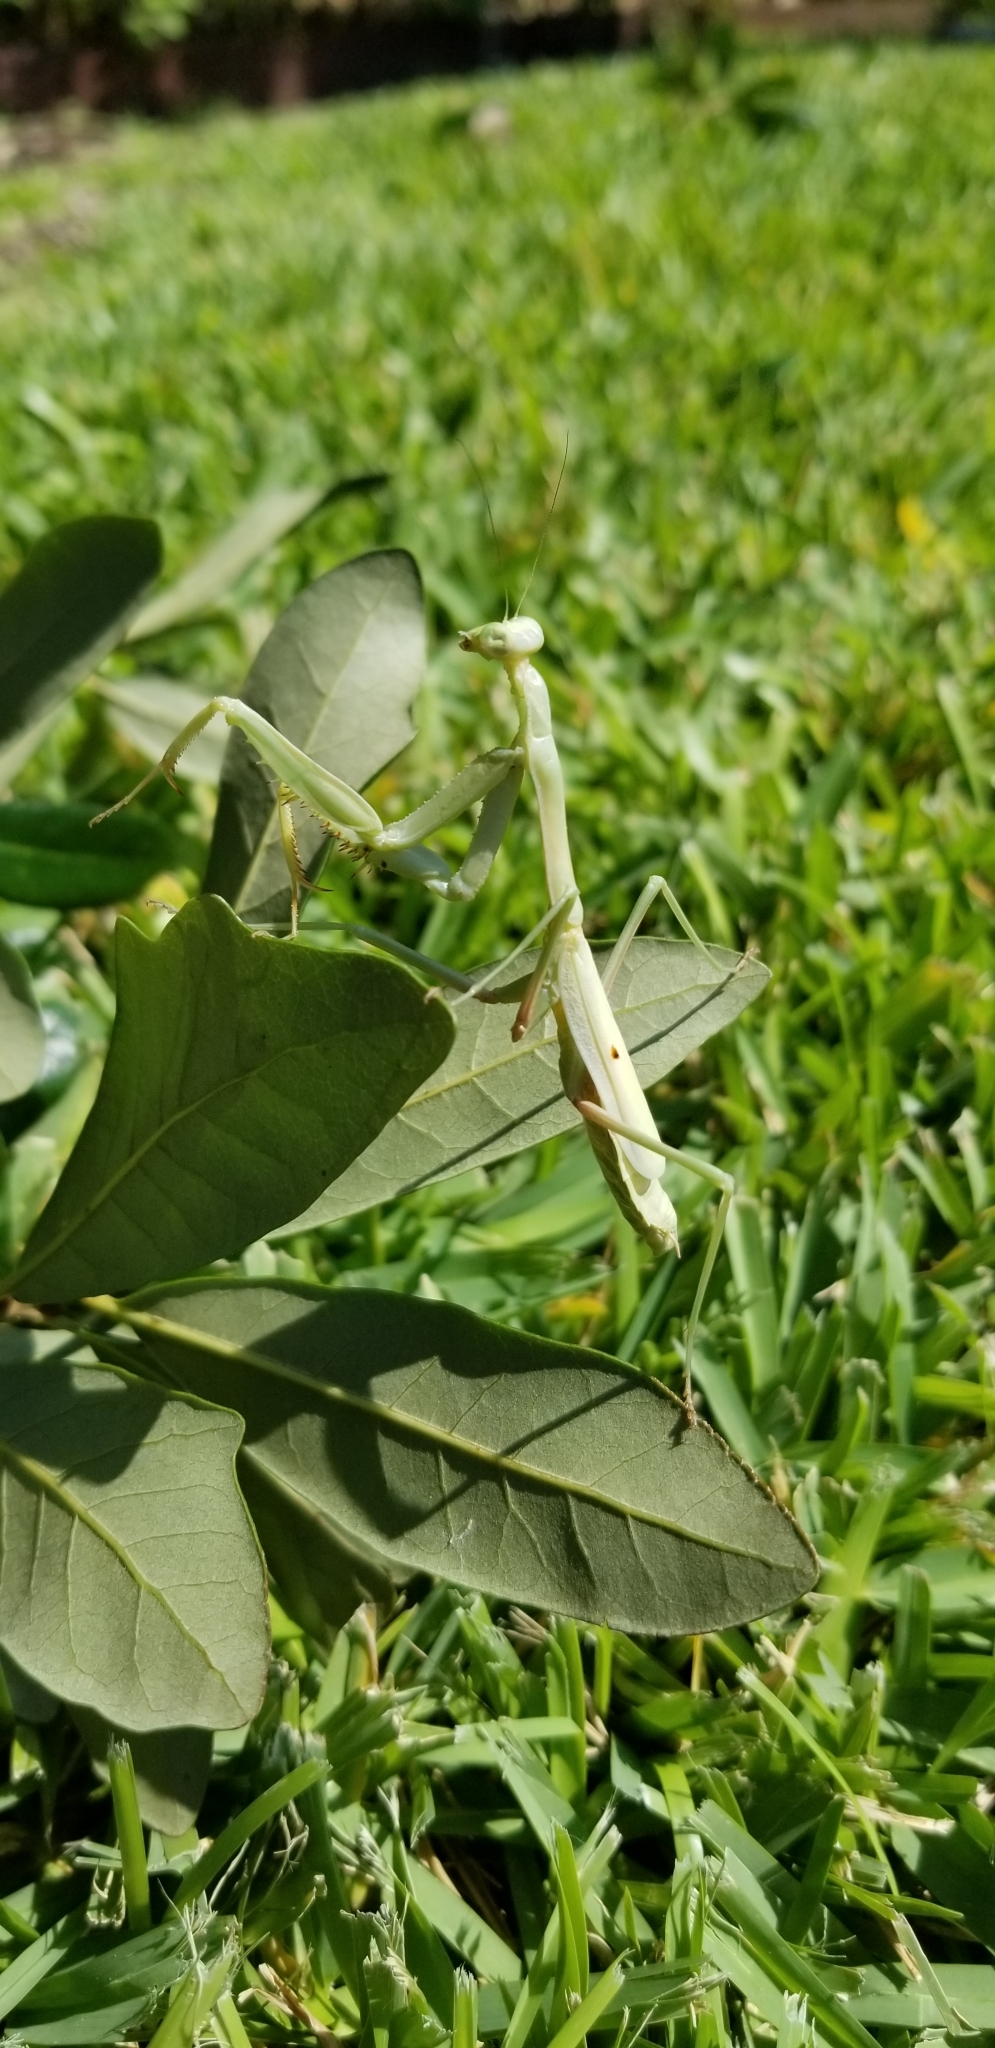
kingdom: Animalia
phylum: Arthropoda
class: Insecta
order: Mantodea
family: Mantidae
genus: Stagmomantis
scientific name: Stagmomantis carolina
